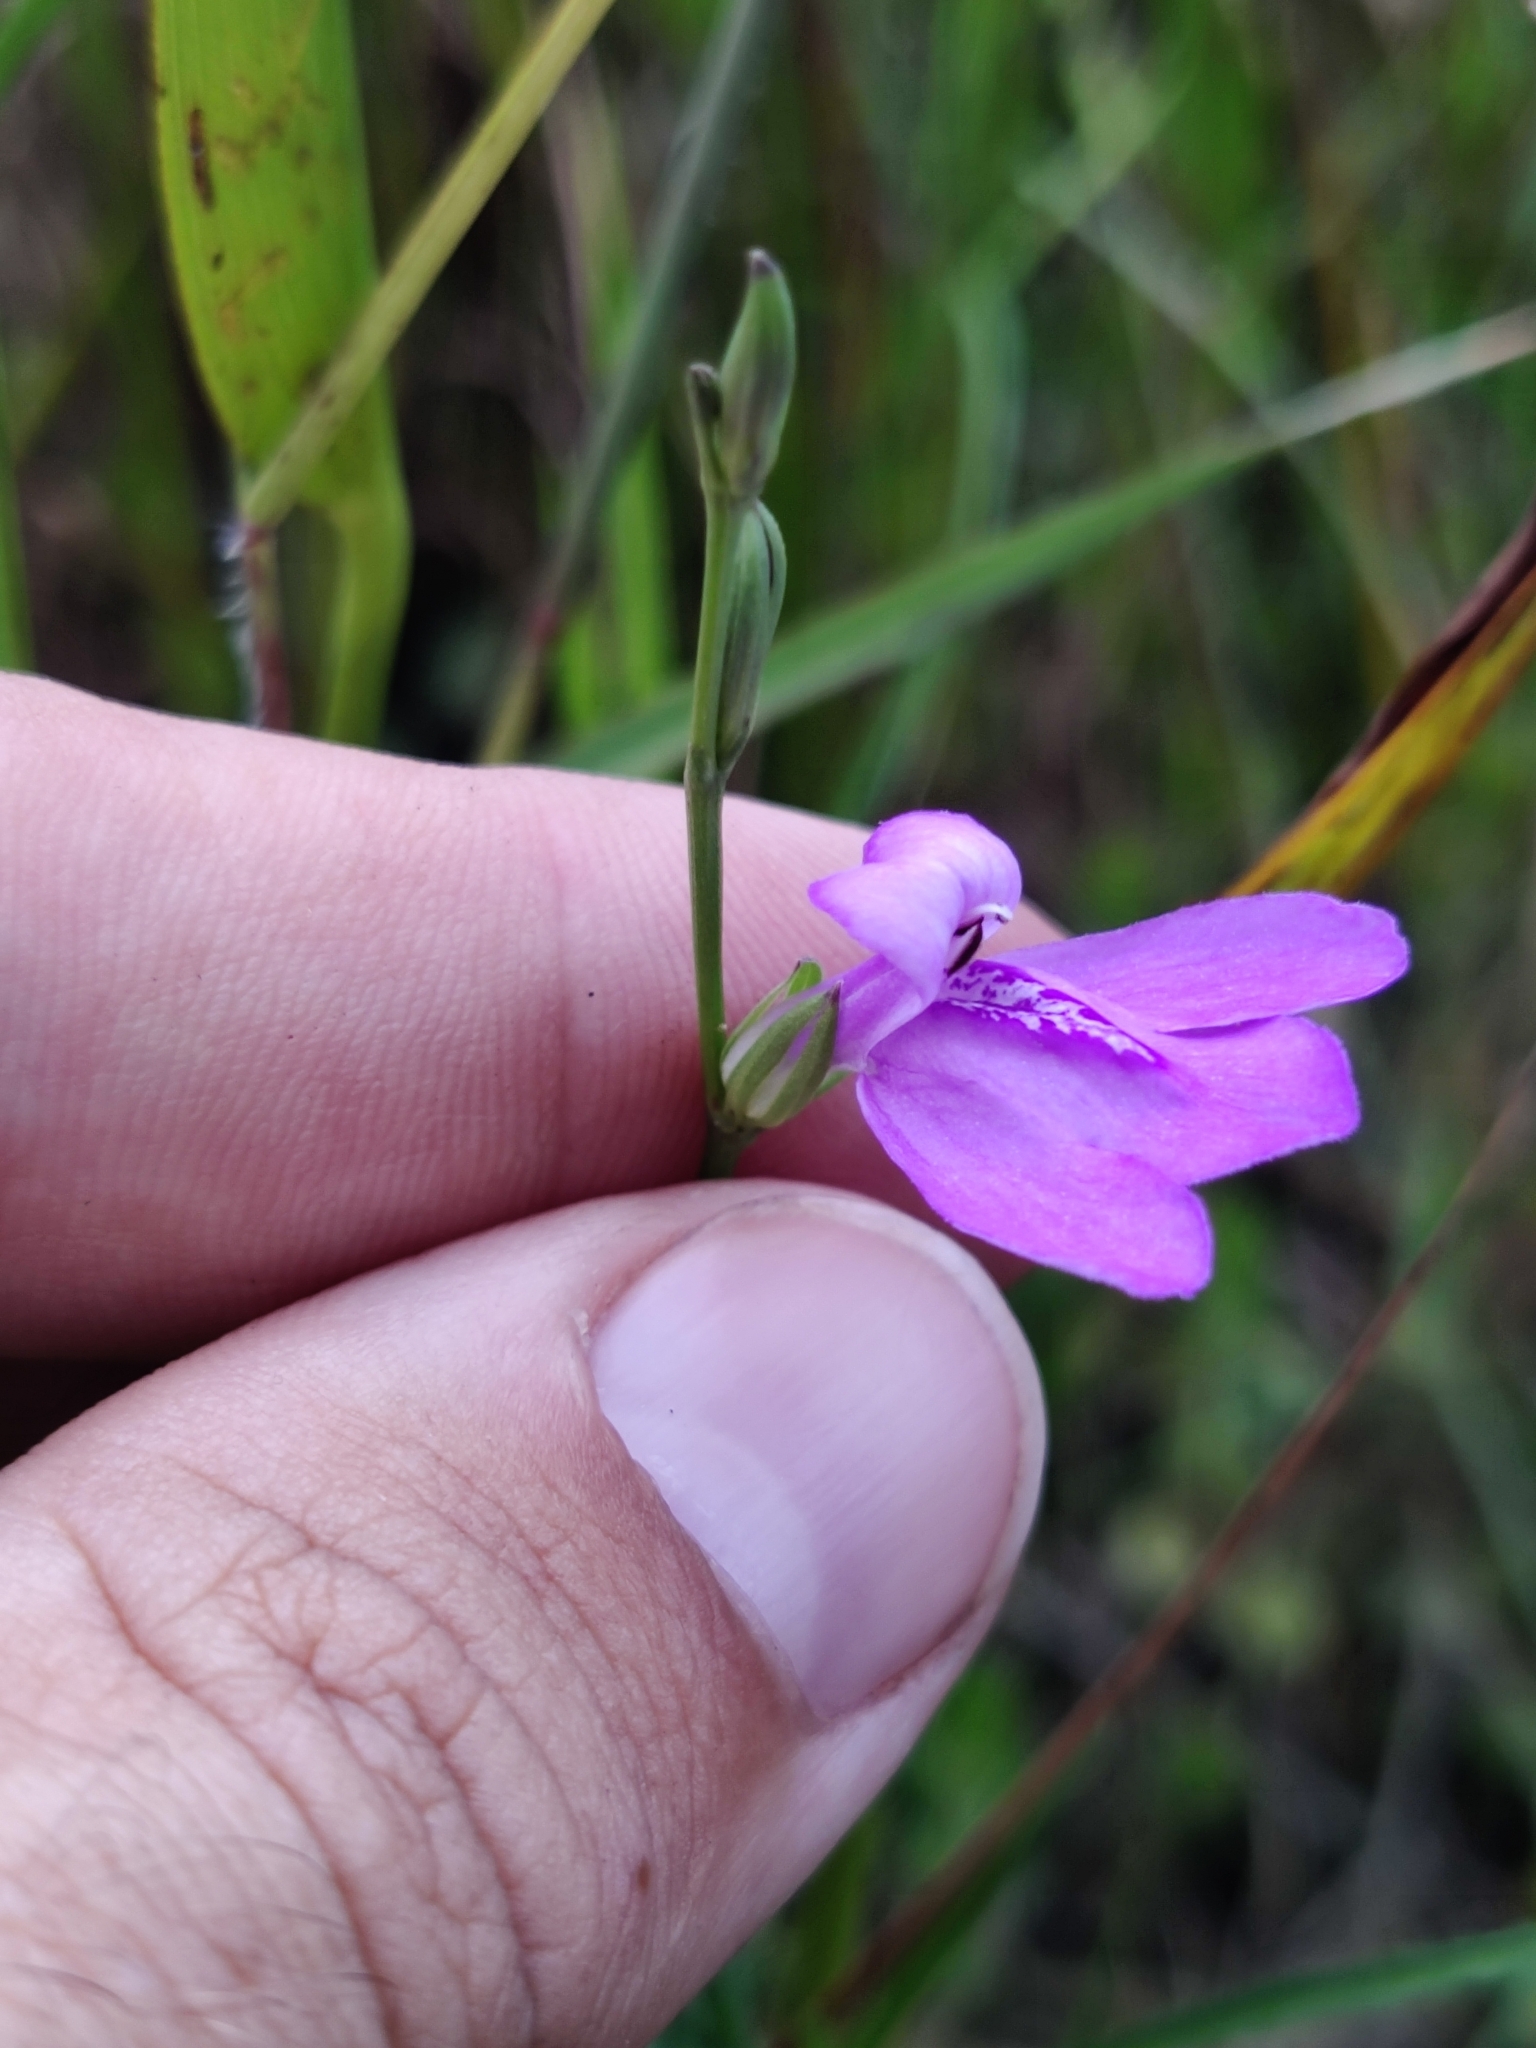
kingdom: Plantae
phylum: Tracheophyta
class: Magnoliopsida
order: Lamiales
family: Acanthaceae
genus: Dianthera
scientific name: Dianthera angusta
